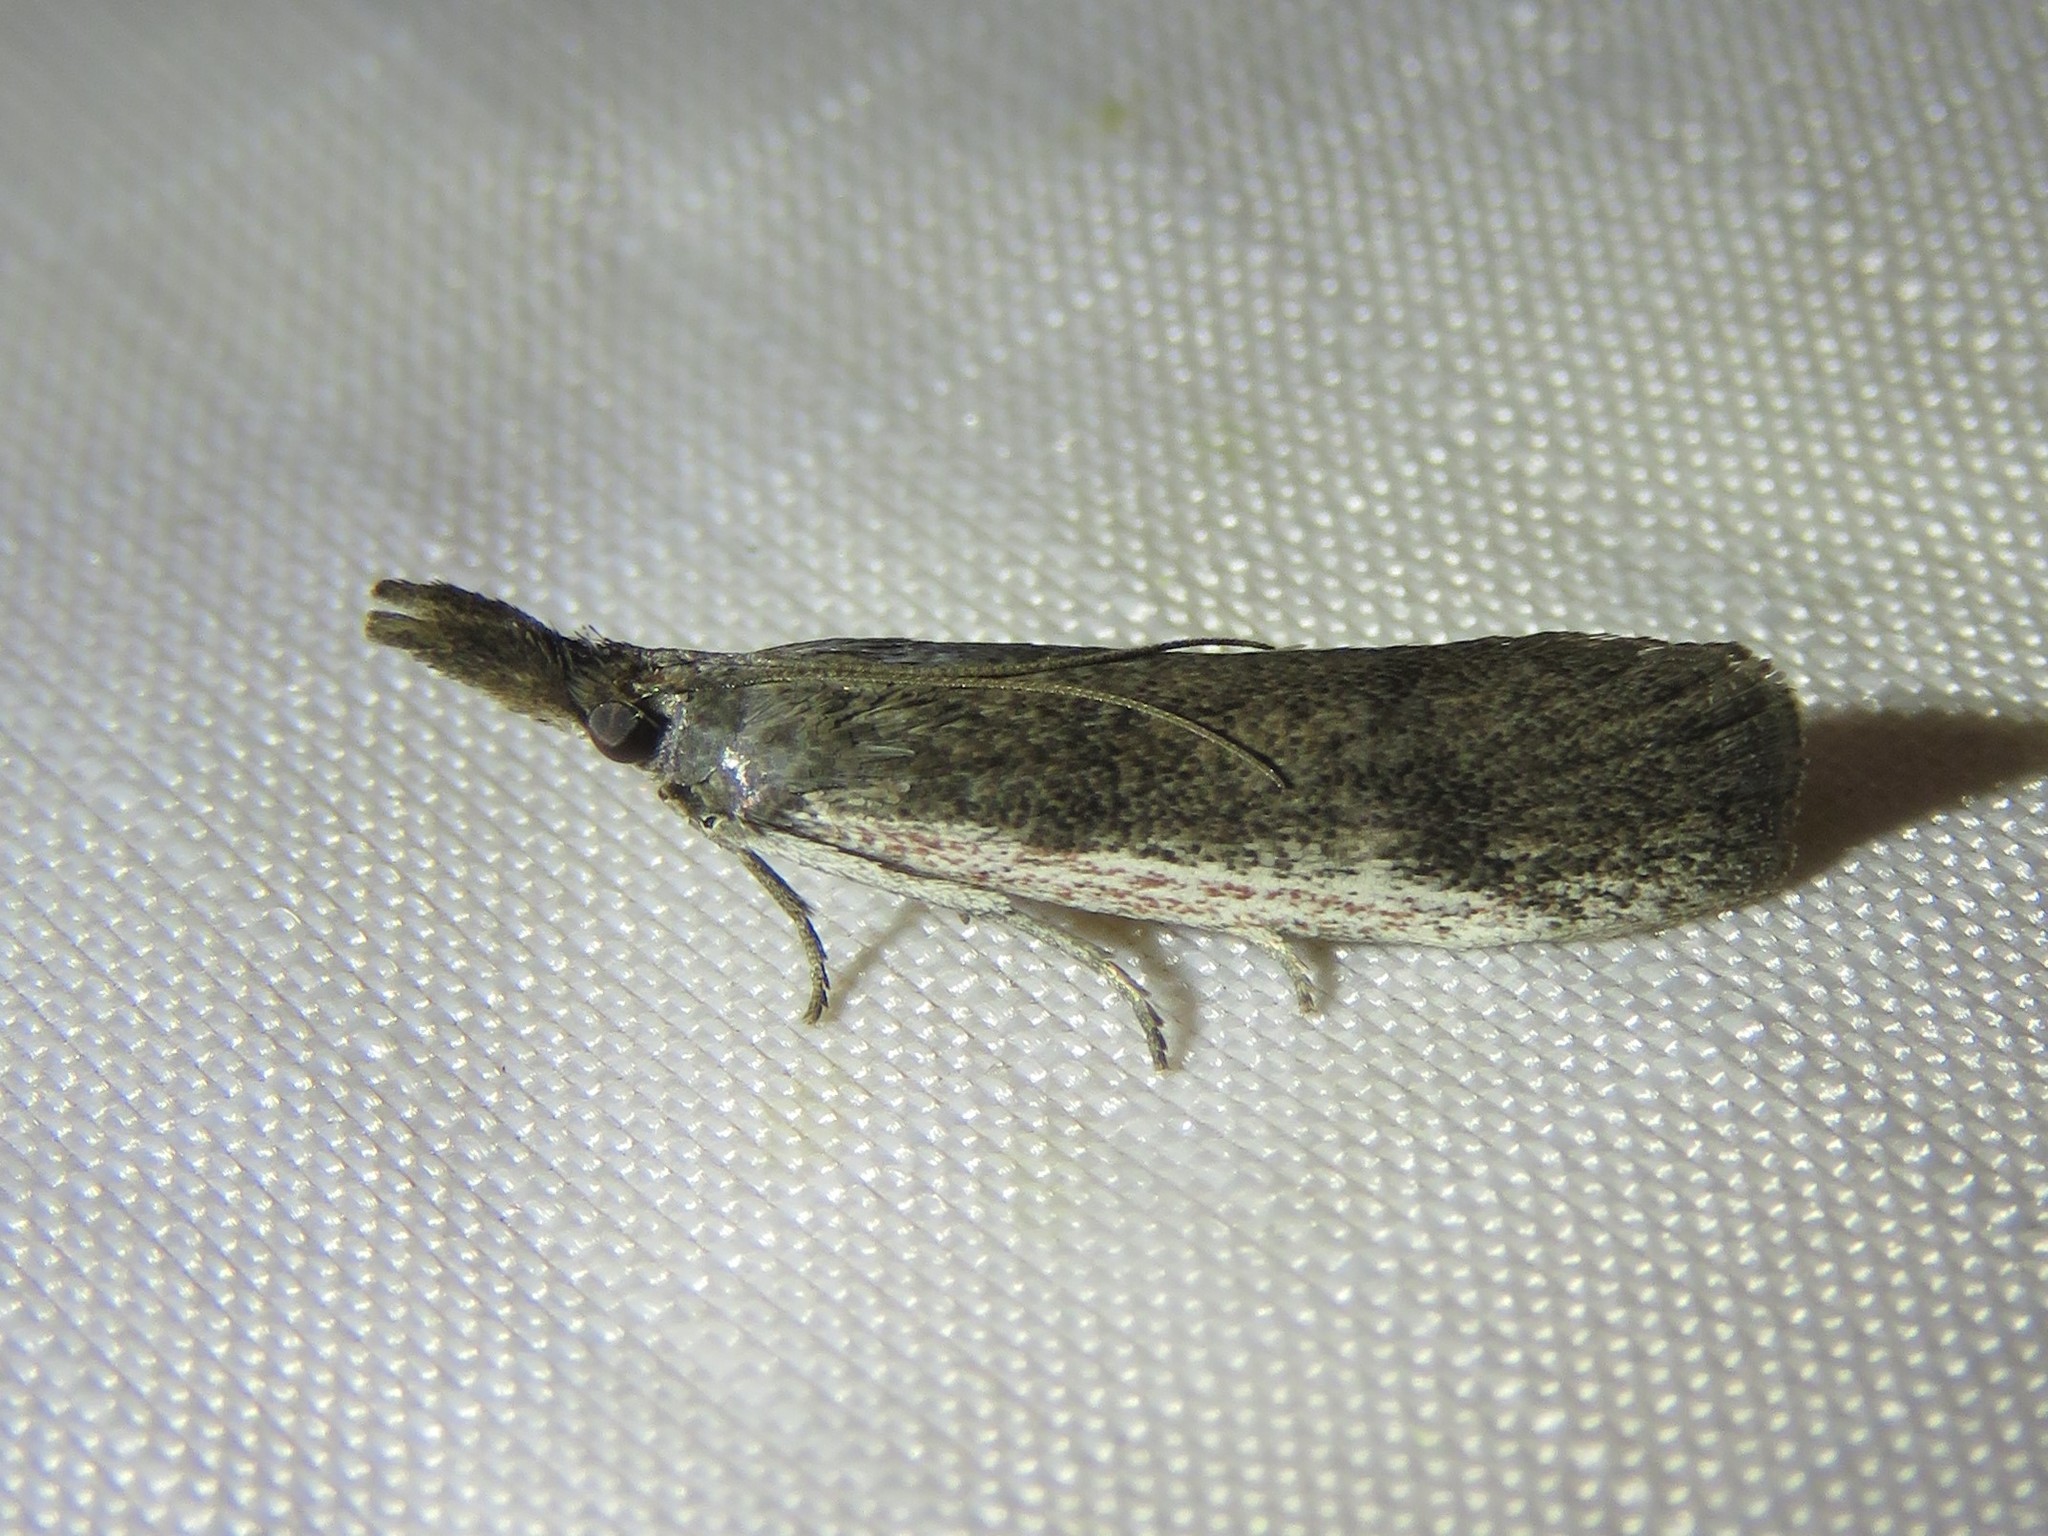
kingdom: Animalia
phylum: Arthropoda
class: Insecta
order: Lepidoptera
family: Pyralidae
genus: Peoria
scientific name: Peoria longipalpella
